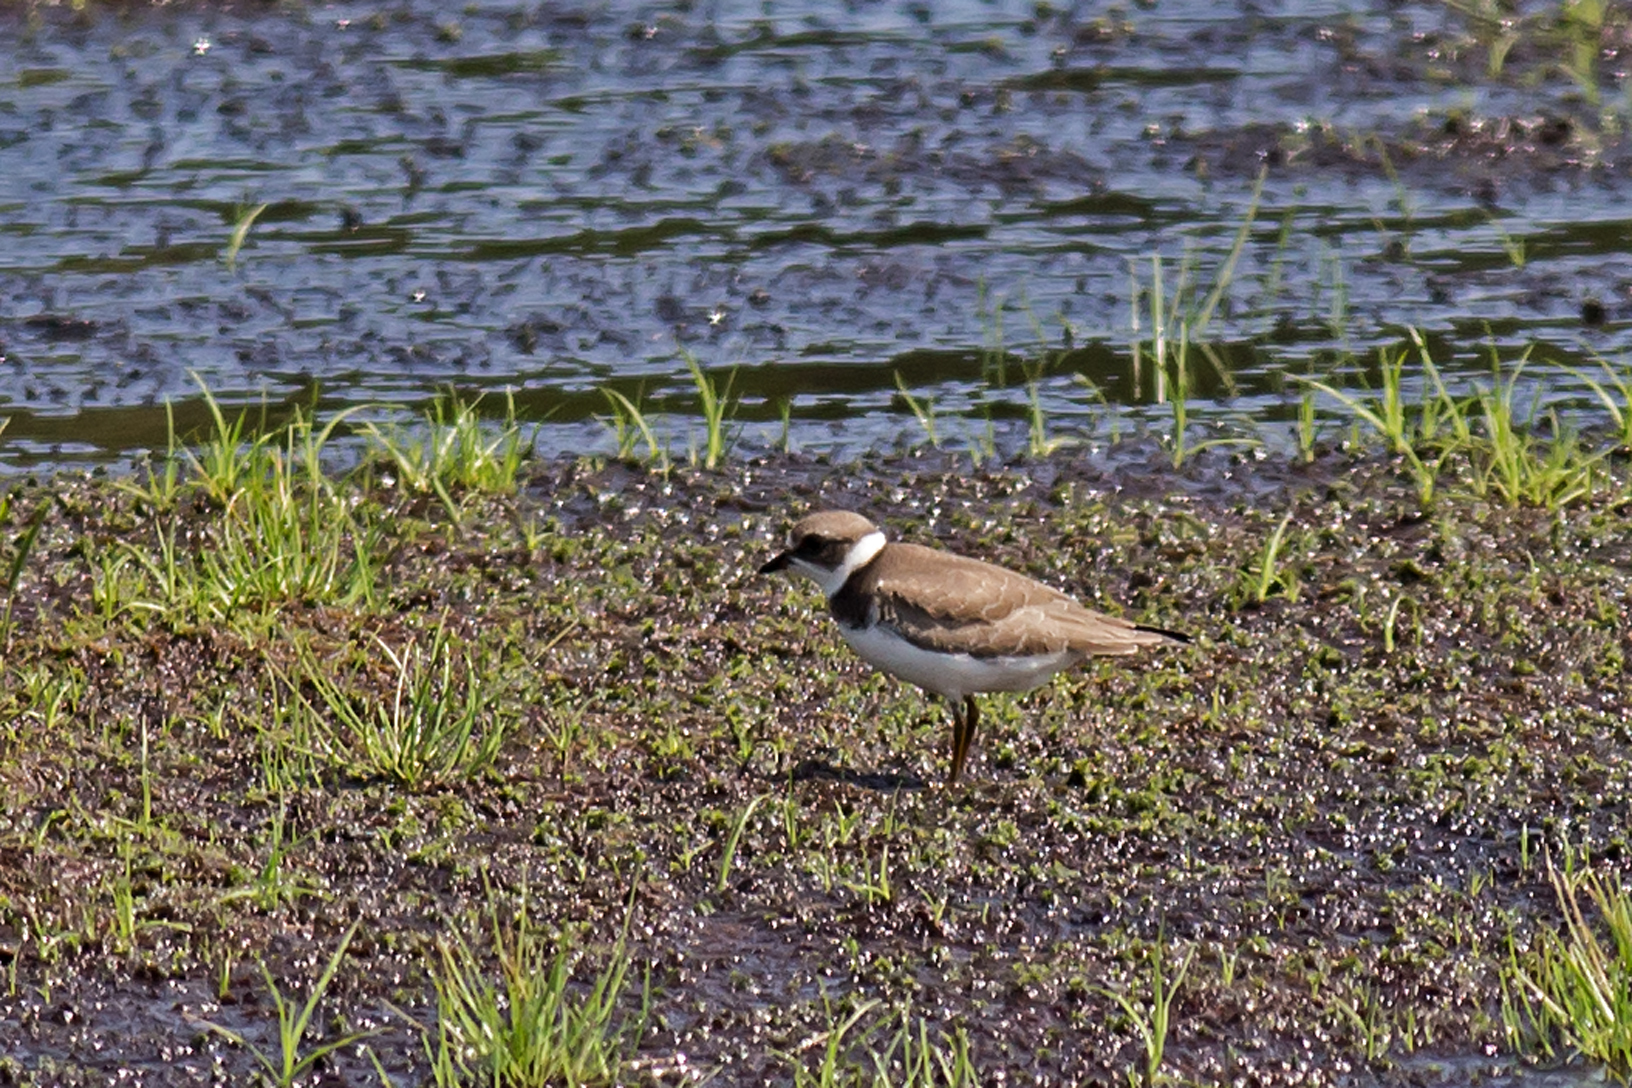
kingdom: Animalia
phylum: Chordata
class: Aves
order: Charadriiformes
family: Charadriidae
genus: Charadrius
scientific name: Charadrius semipalmatus
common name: Semipalmated plover
